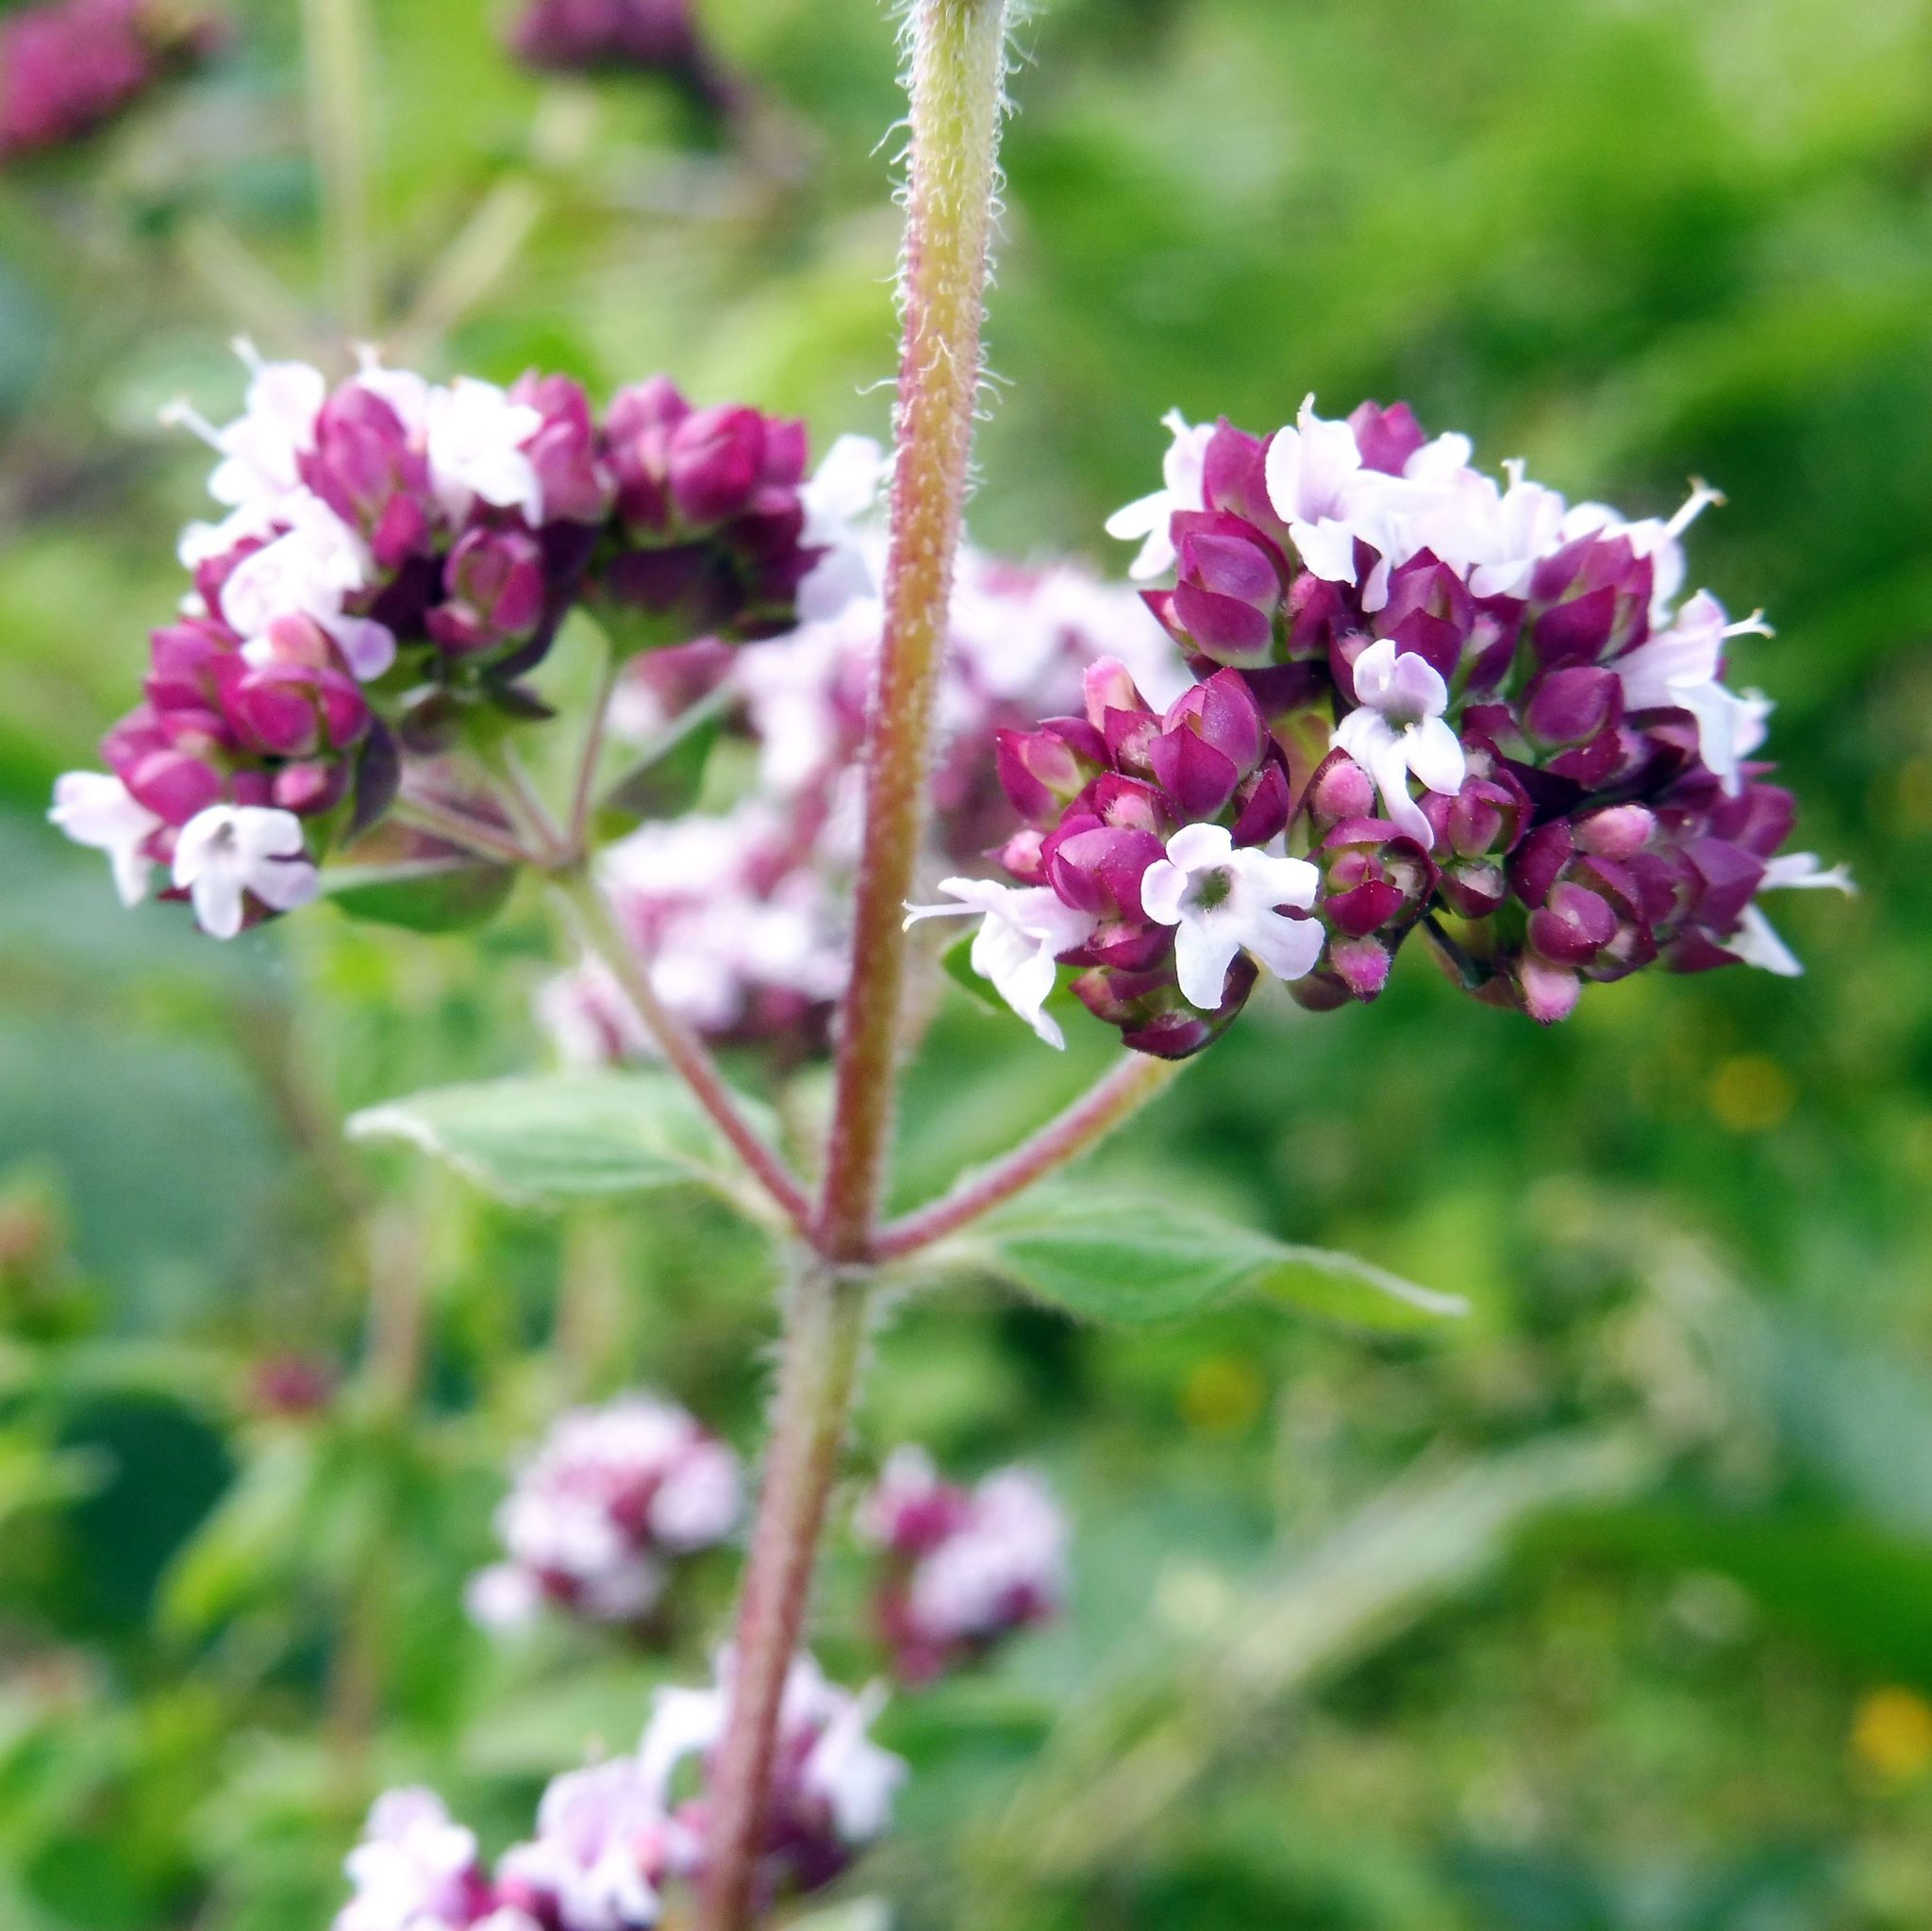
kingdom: Plantae
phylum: Tracheophyta
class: Magnoliopsida
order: Lamiales
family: Lamiaceae
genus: Origanum
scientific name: Origanum vulgare
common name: Wild marjoram
